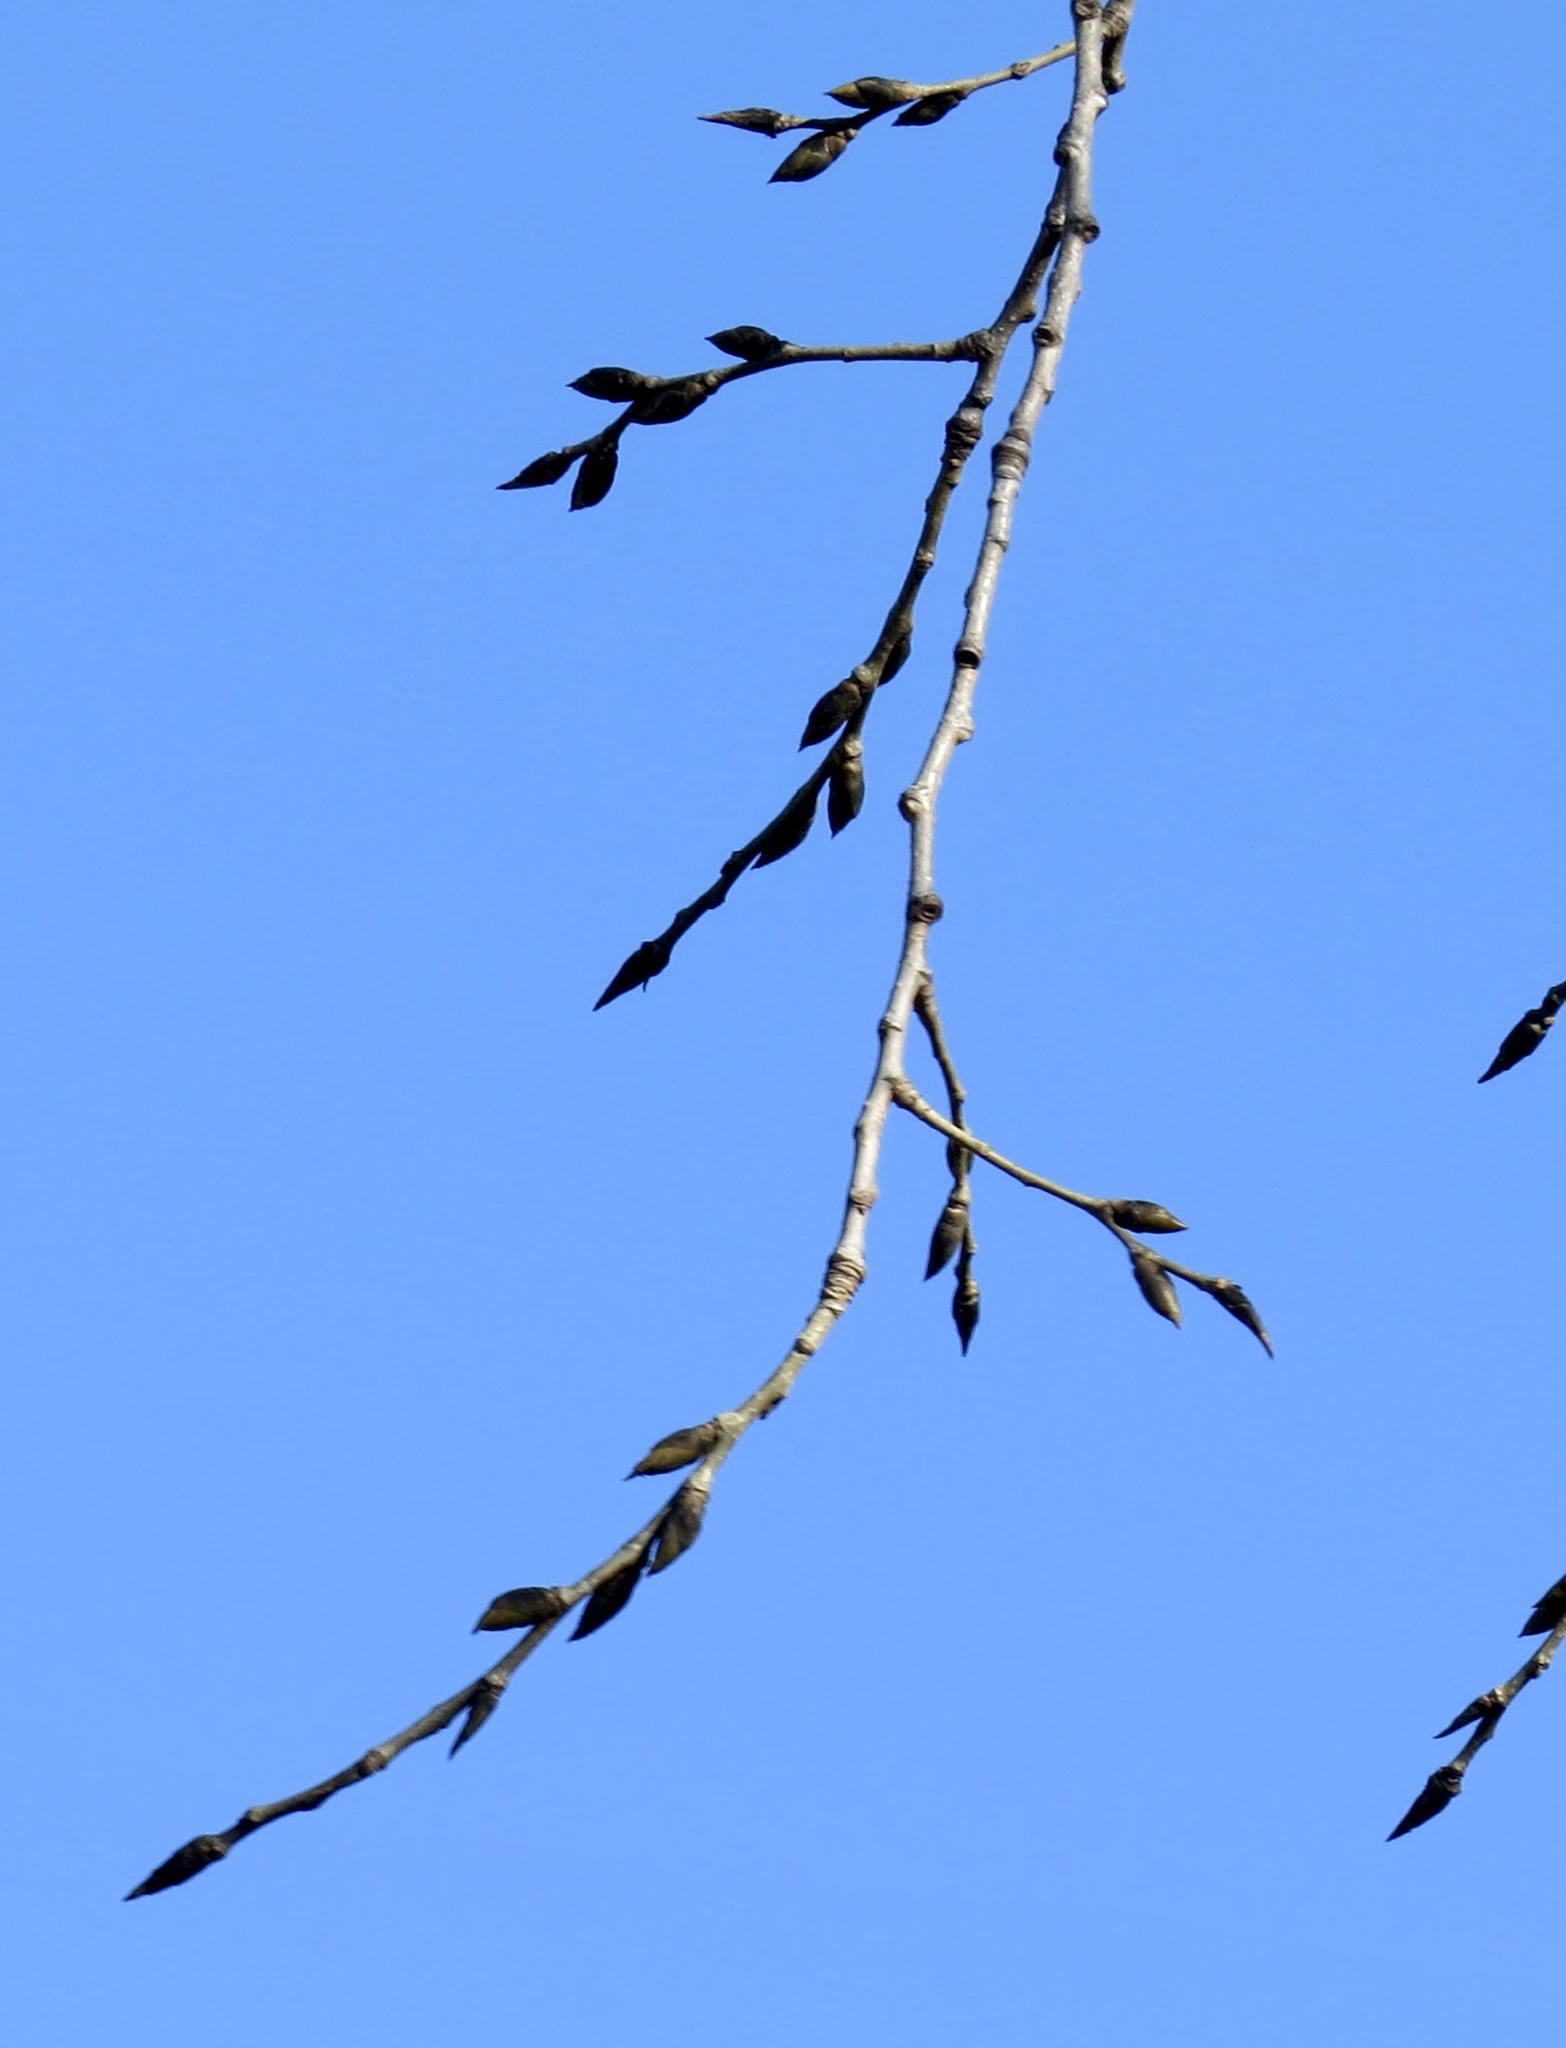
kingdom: Plantae
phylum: Tracheophyta
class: Magnoliopsida
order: Malpighiales
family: Salicaceae
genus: Populus
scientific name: Populus deltoides
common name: Eastern cottonwood
